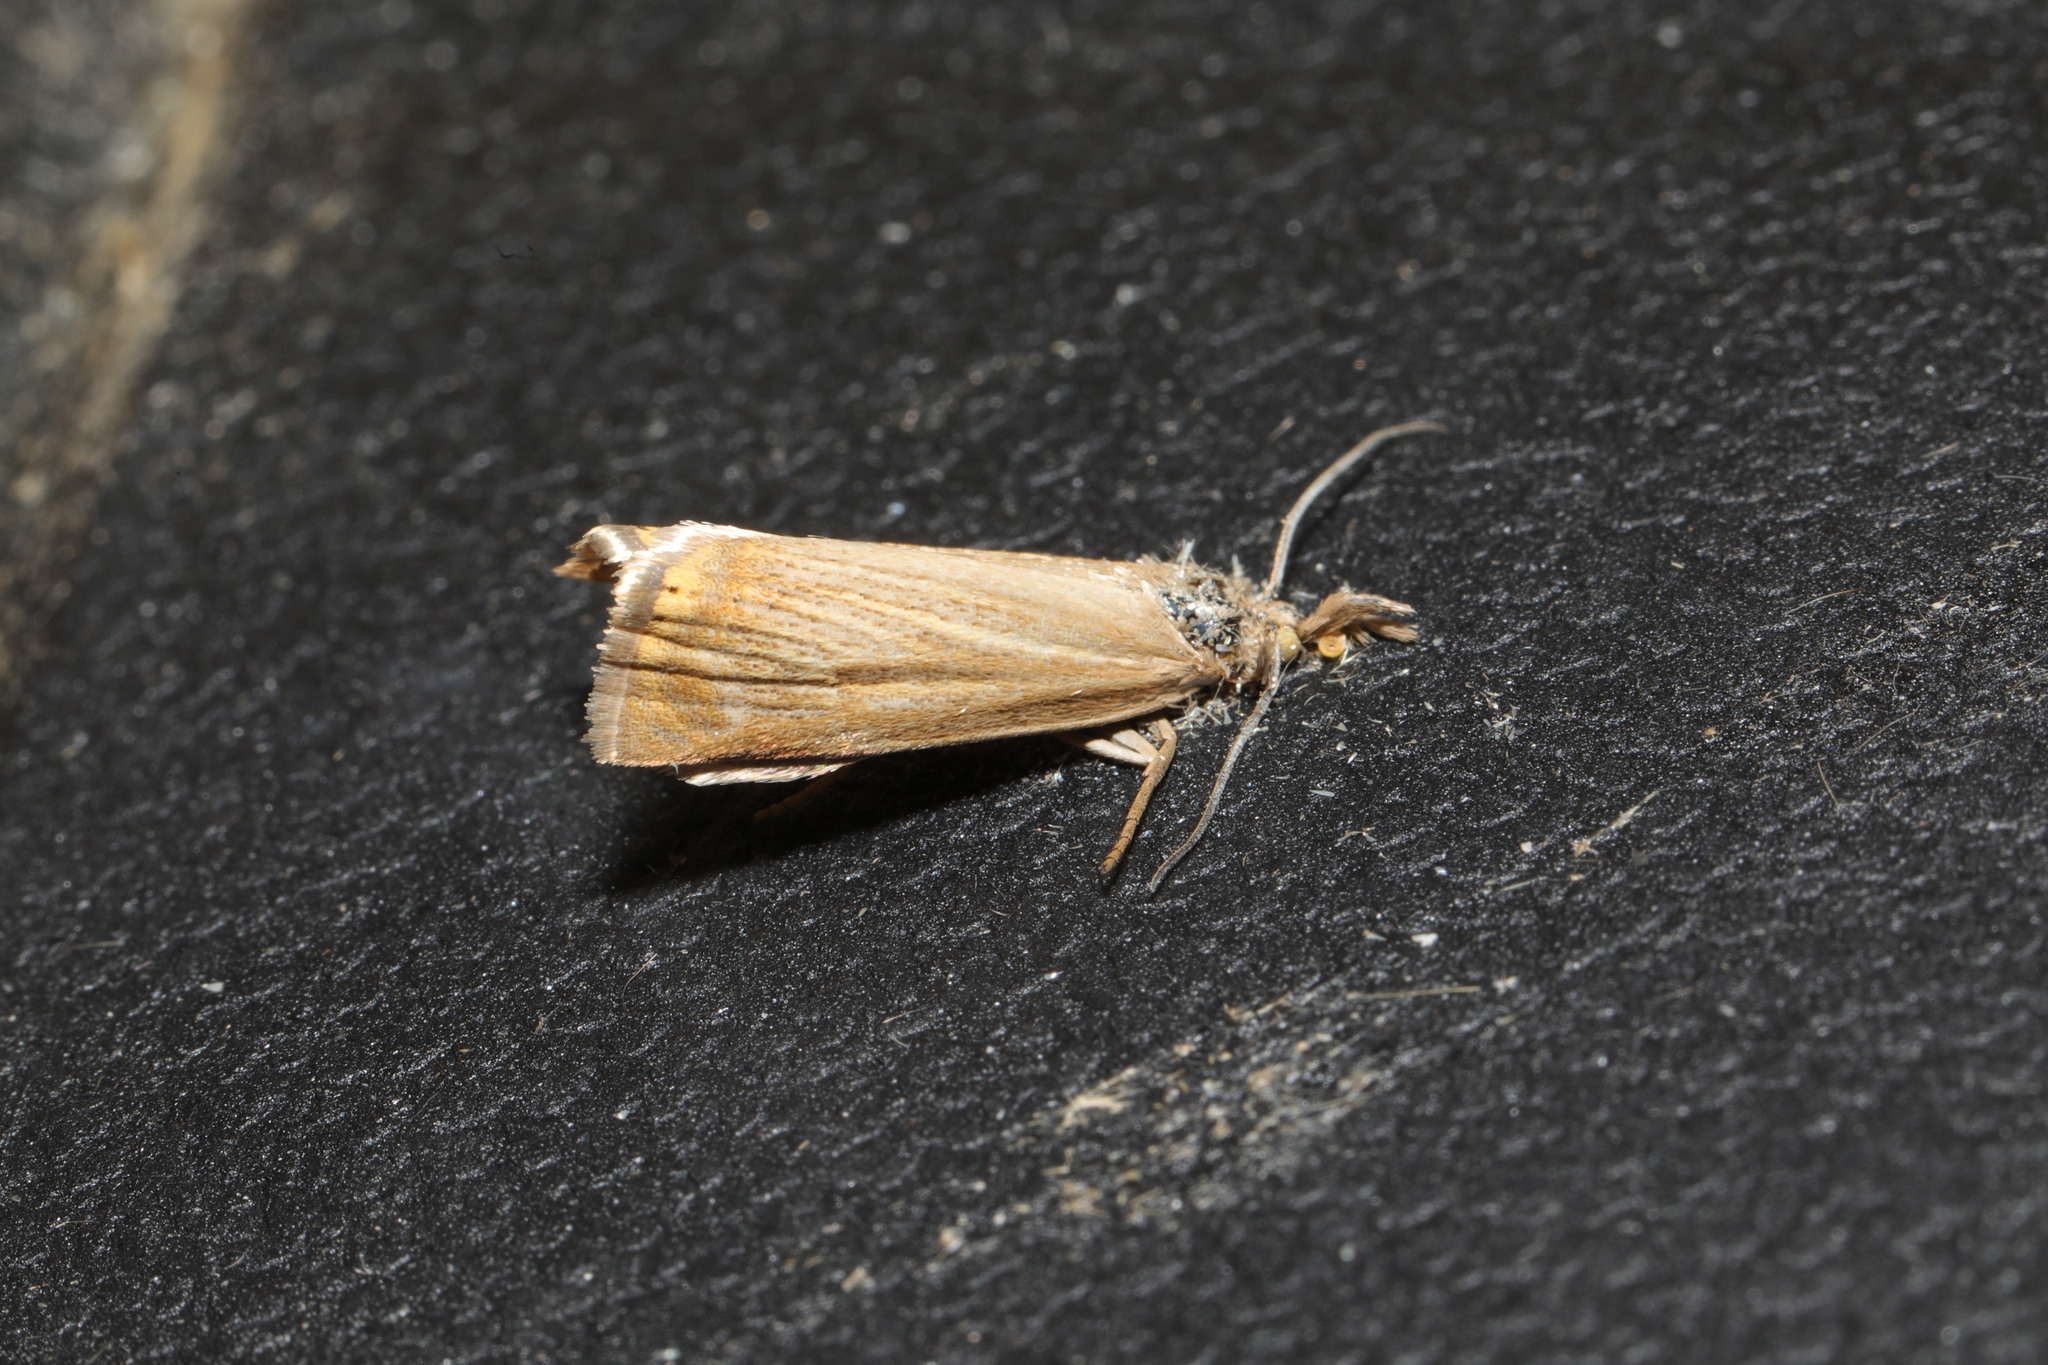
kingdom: Animalia
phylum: Arthropoda
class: Insecta
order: Lepidoptera
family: Crambidae
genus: Chrysoteuchia
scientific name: Chrysoteuchia culmella
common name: Garden grass-veneer
